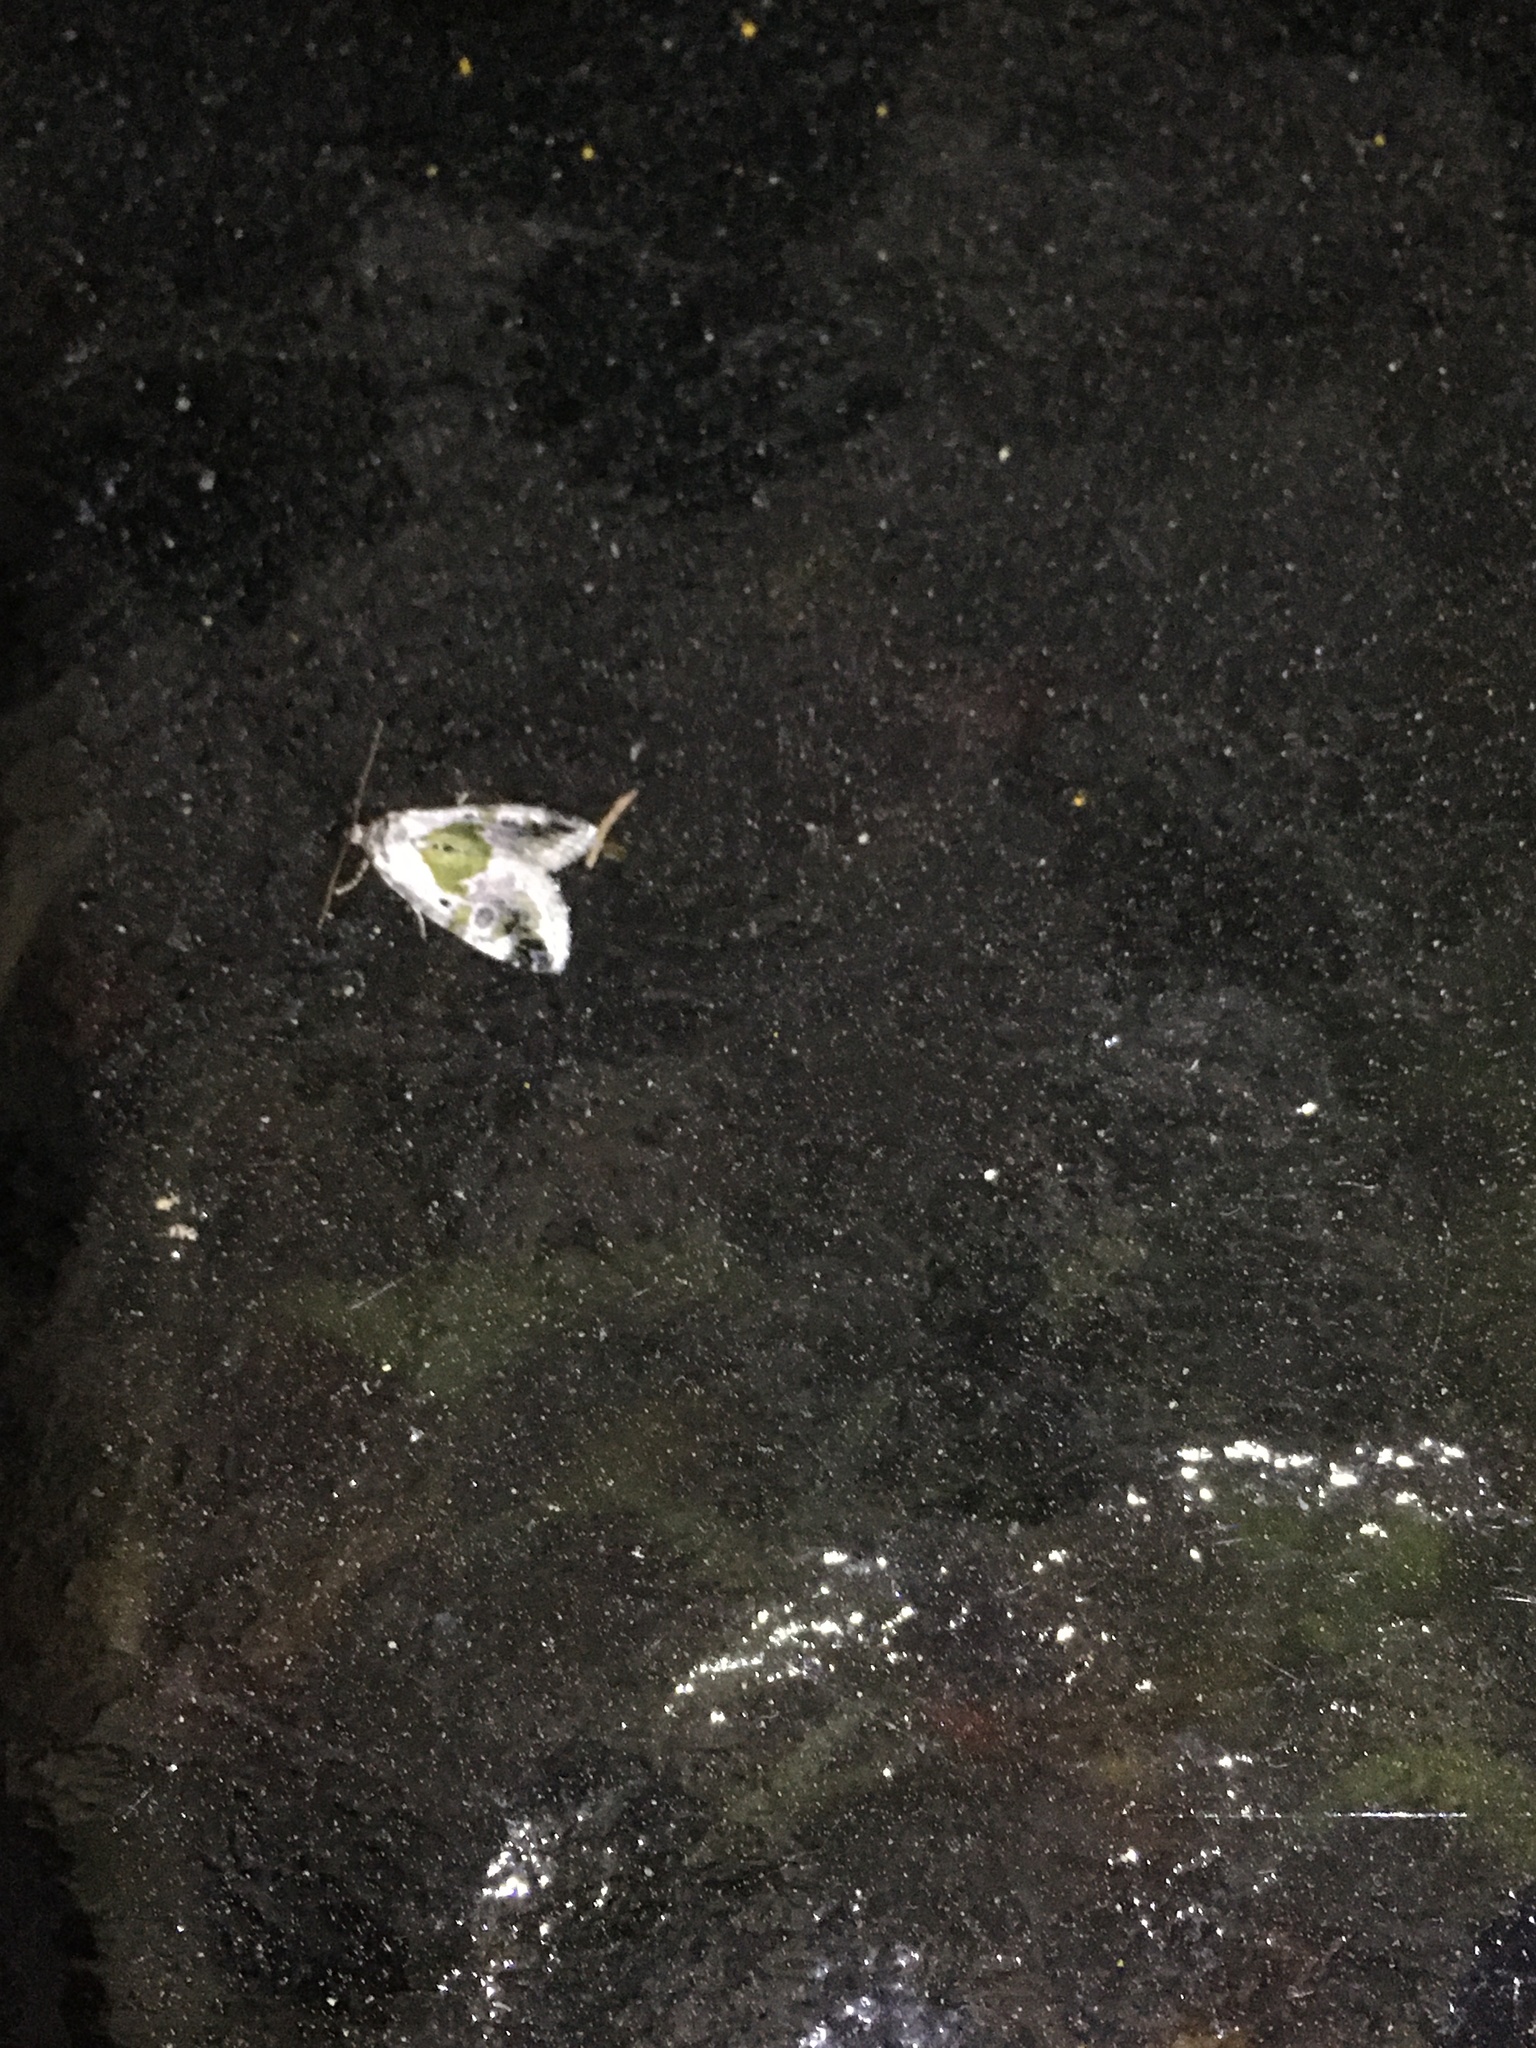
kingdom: Animalia
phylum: Arthropoda
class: Insecta
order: Lepidoptera
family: Noctuidae
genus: Maliattha
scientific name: Maliattha synochitis
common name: Black-dotted glyph
